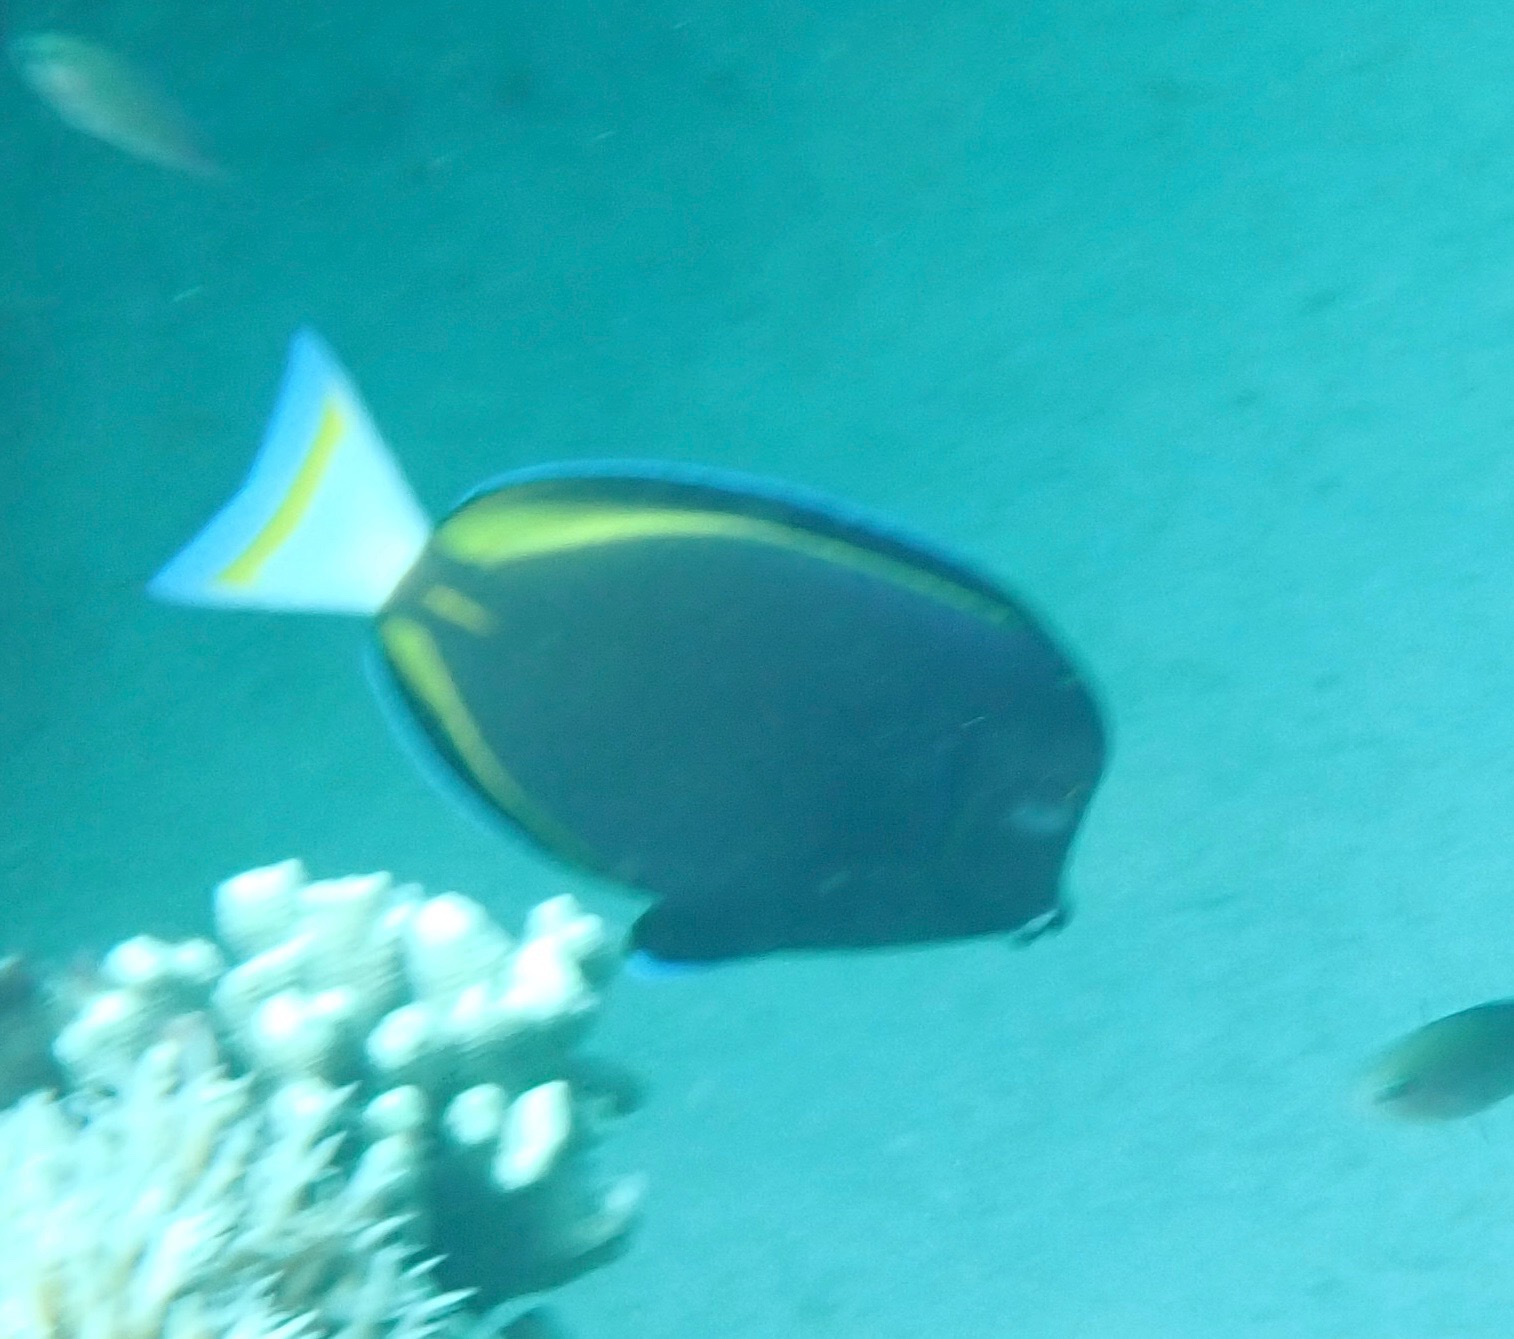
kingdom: Animalia
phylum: Chordata
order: Perciformes
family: Acanthuridae
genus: Acanthurus
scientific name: Acanthurus nigricans
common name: Whitecheek surgeonfish
